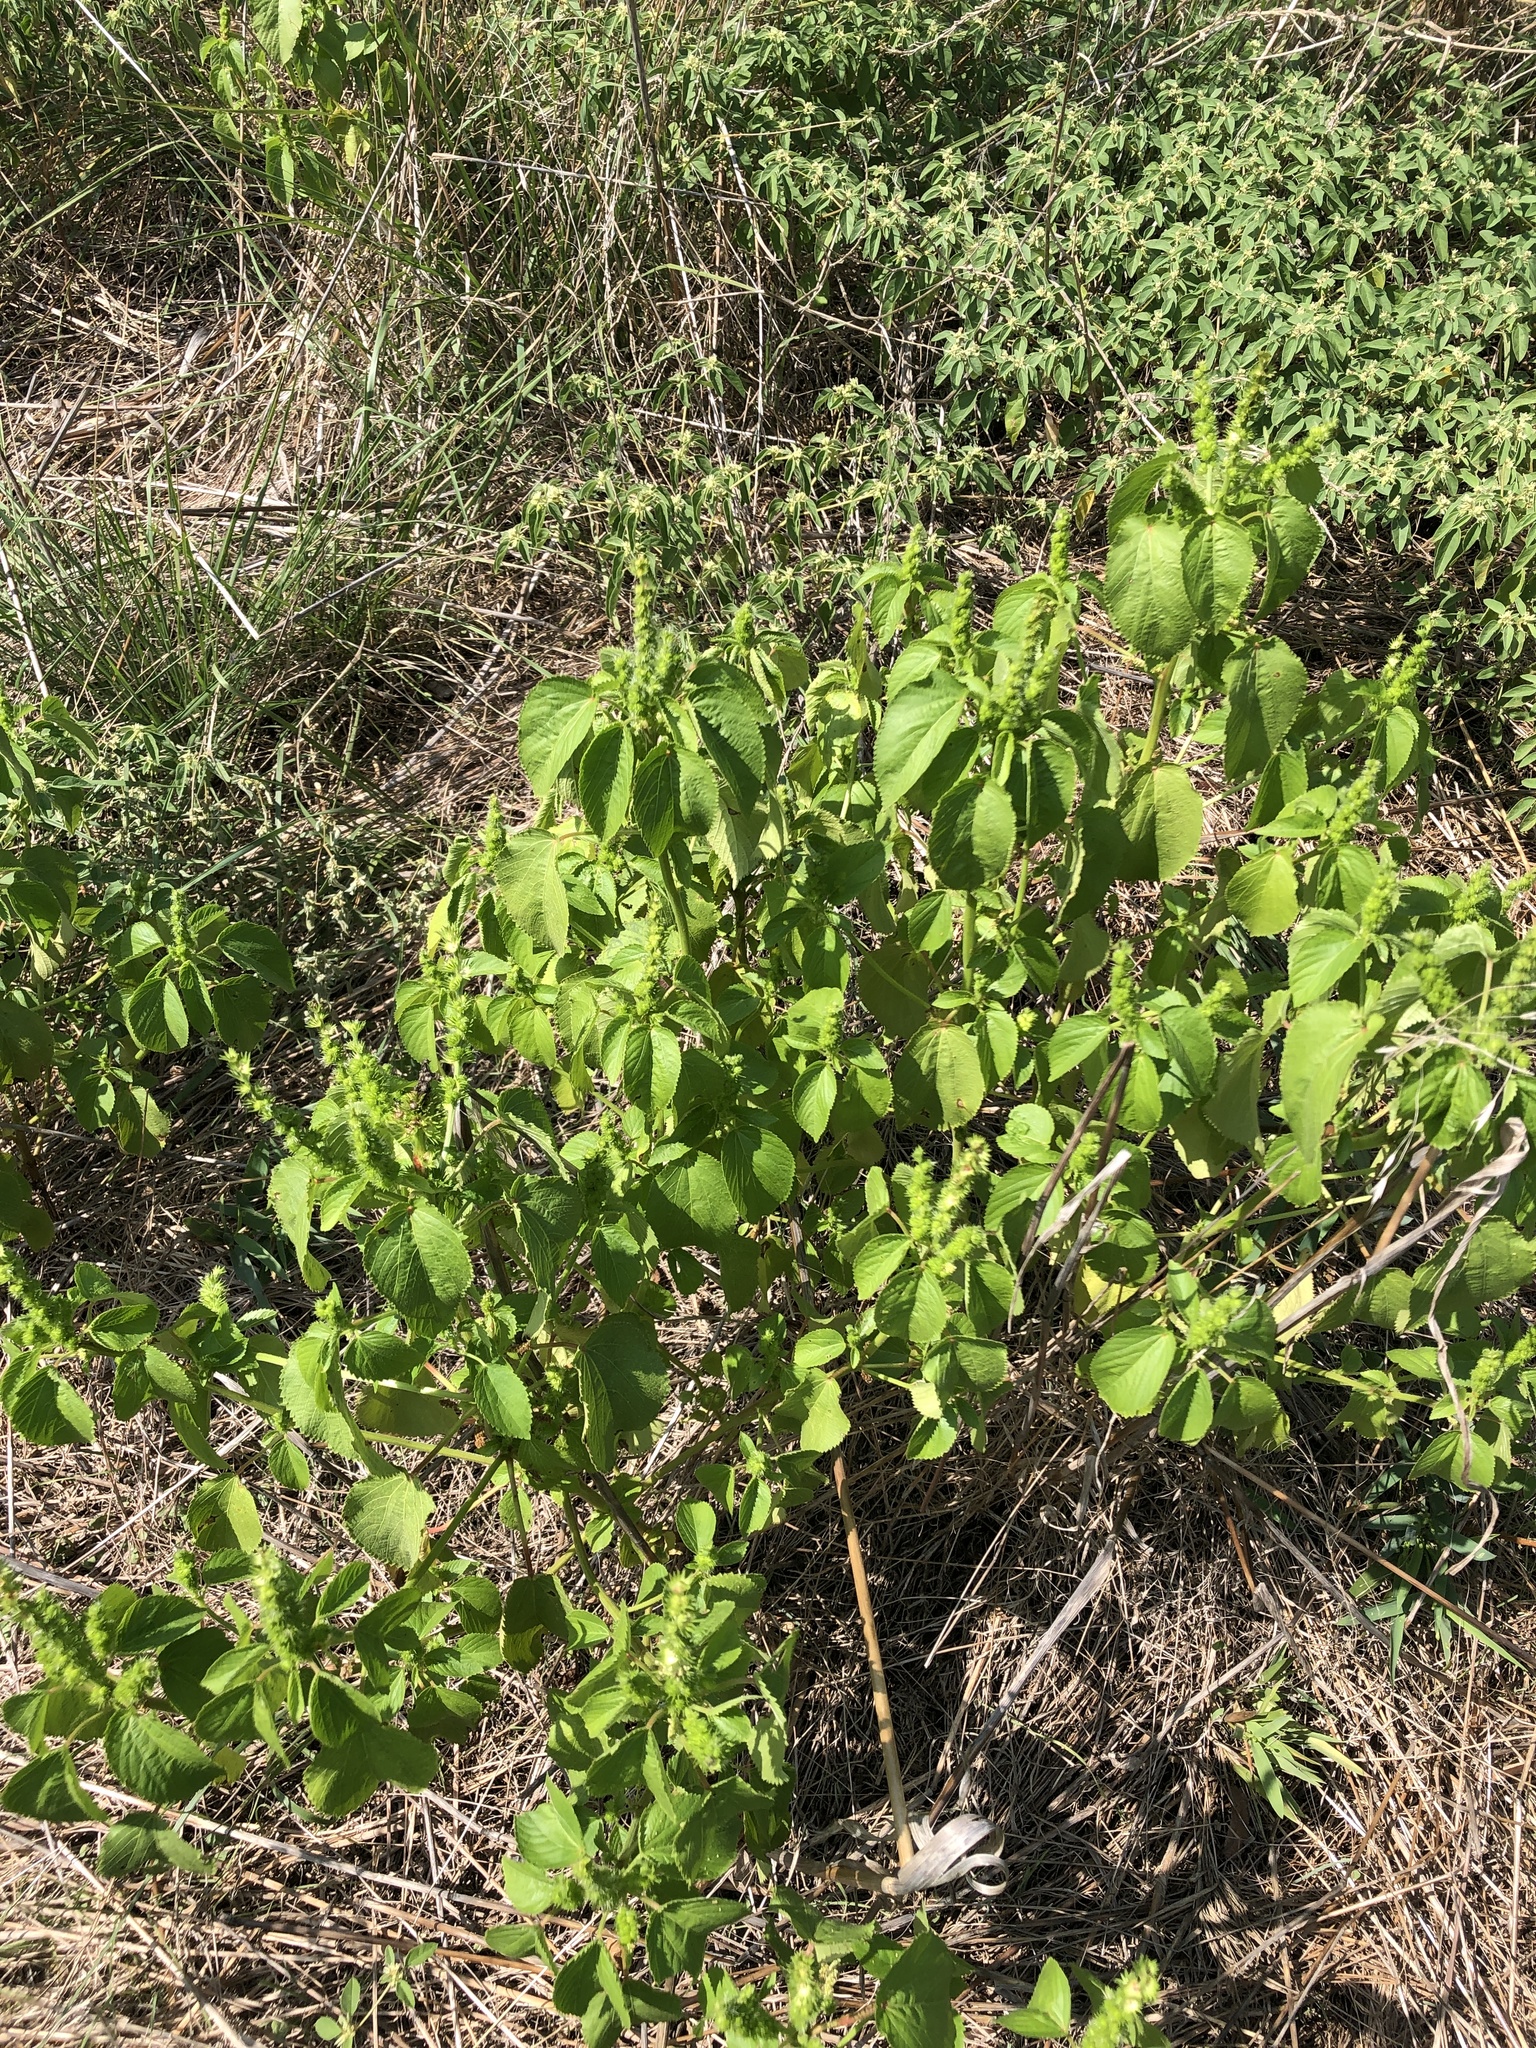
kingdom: Plantae
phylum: Tracheophyta
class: Magnoliopsida
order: Malpighiales
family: Euphorbiaceae
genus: Acalypha
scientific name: Acalypha ostryifolia
